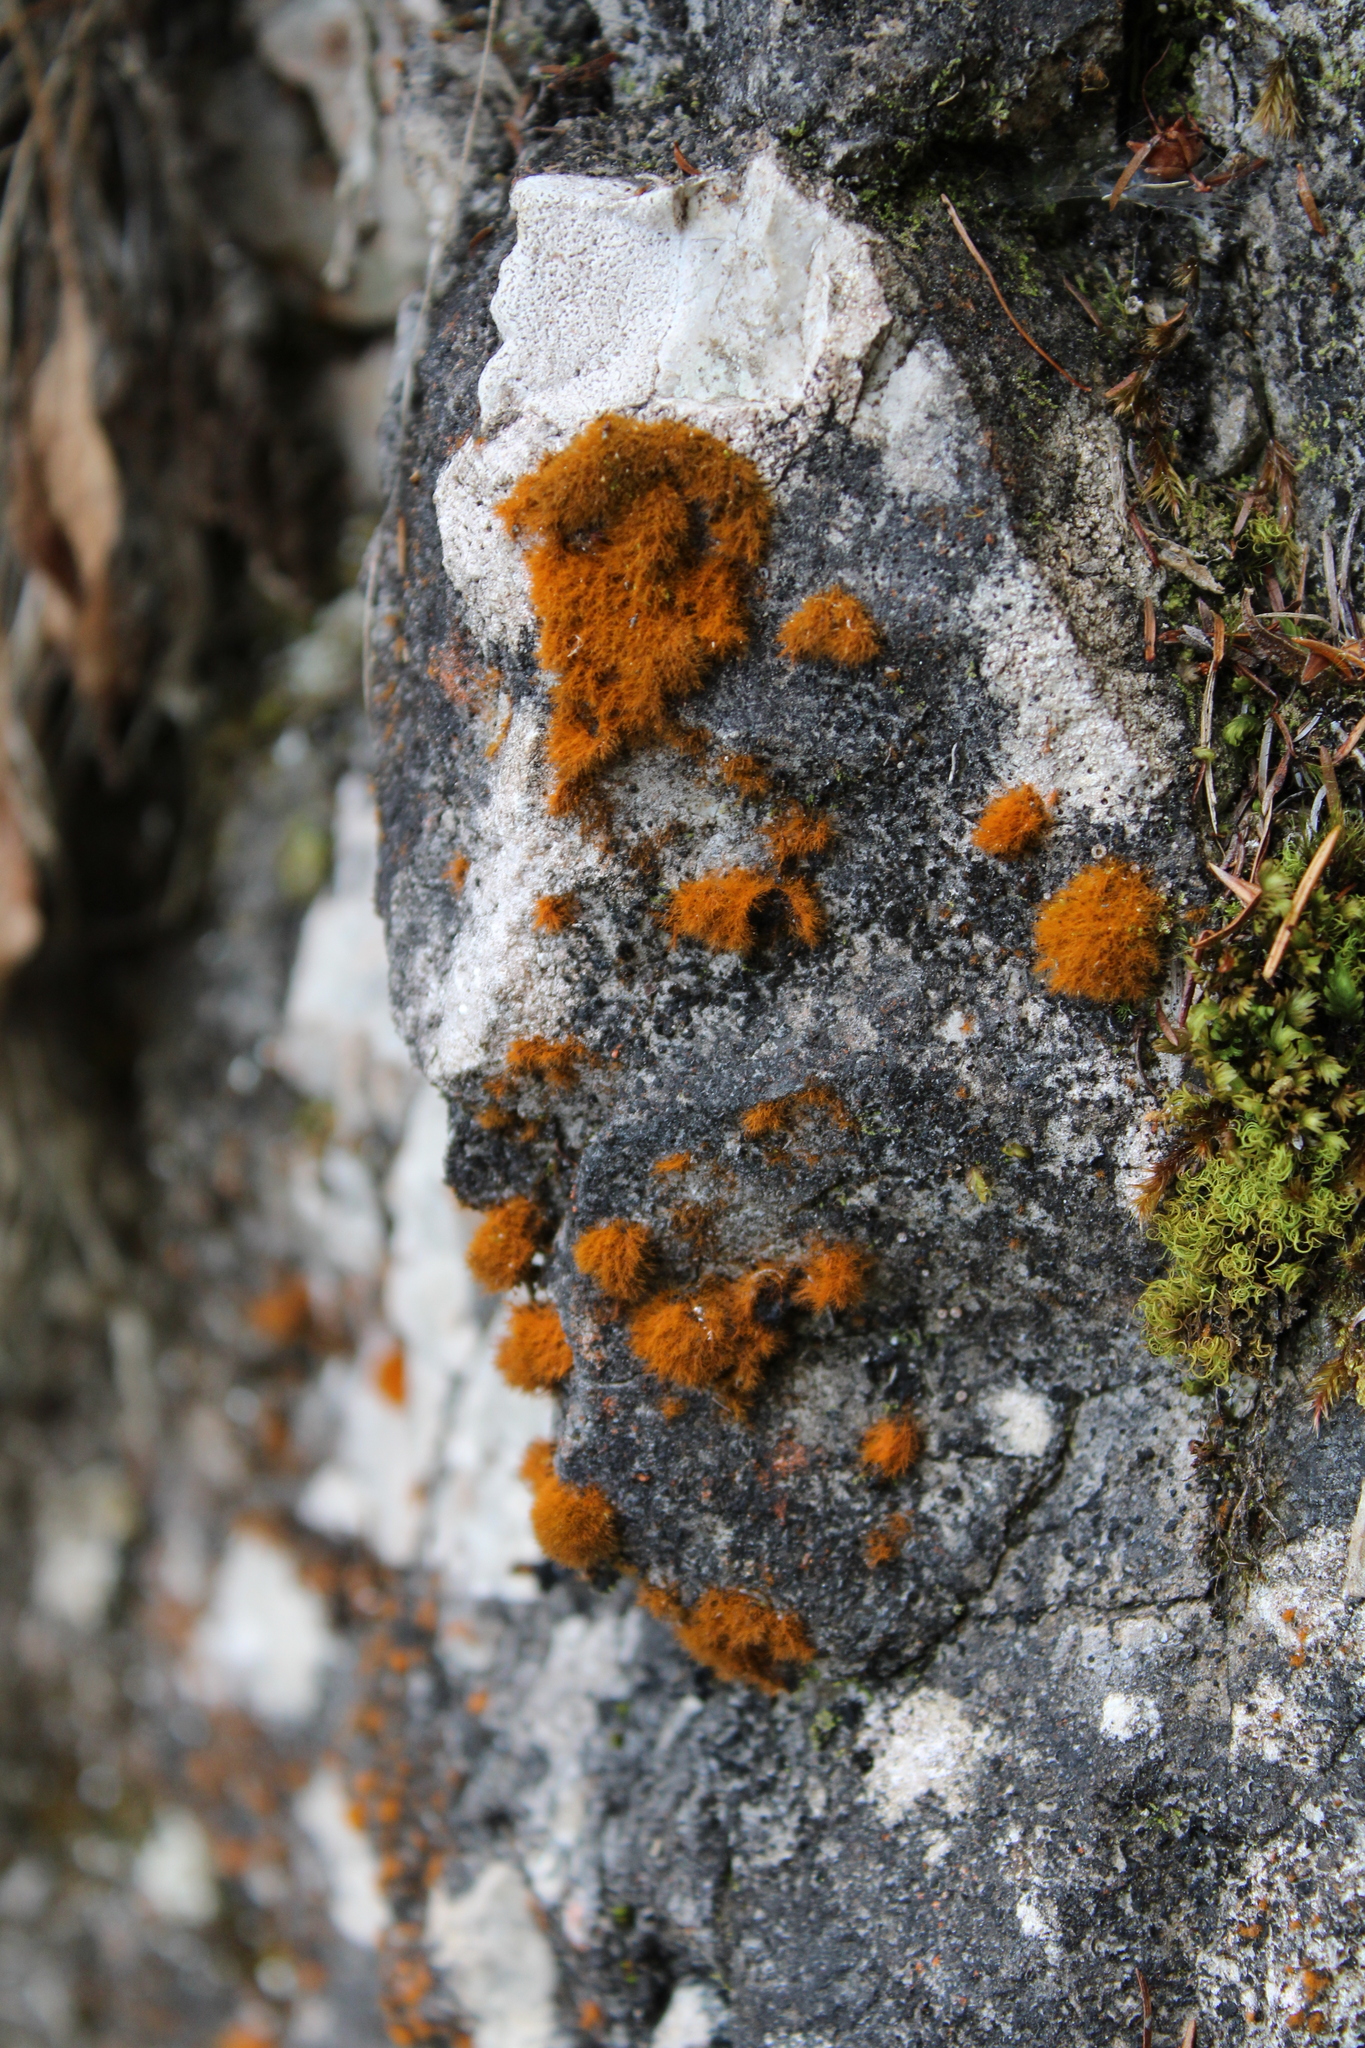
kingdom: Plantae
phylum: Chlorophyta
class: Ulvophyceae
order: Trentepohliales
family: Trentepohliaceae
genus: Trentepohlia
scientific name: Trentepohlia aurea
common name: Orange rock hair
